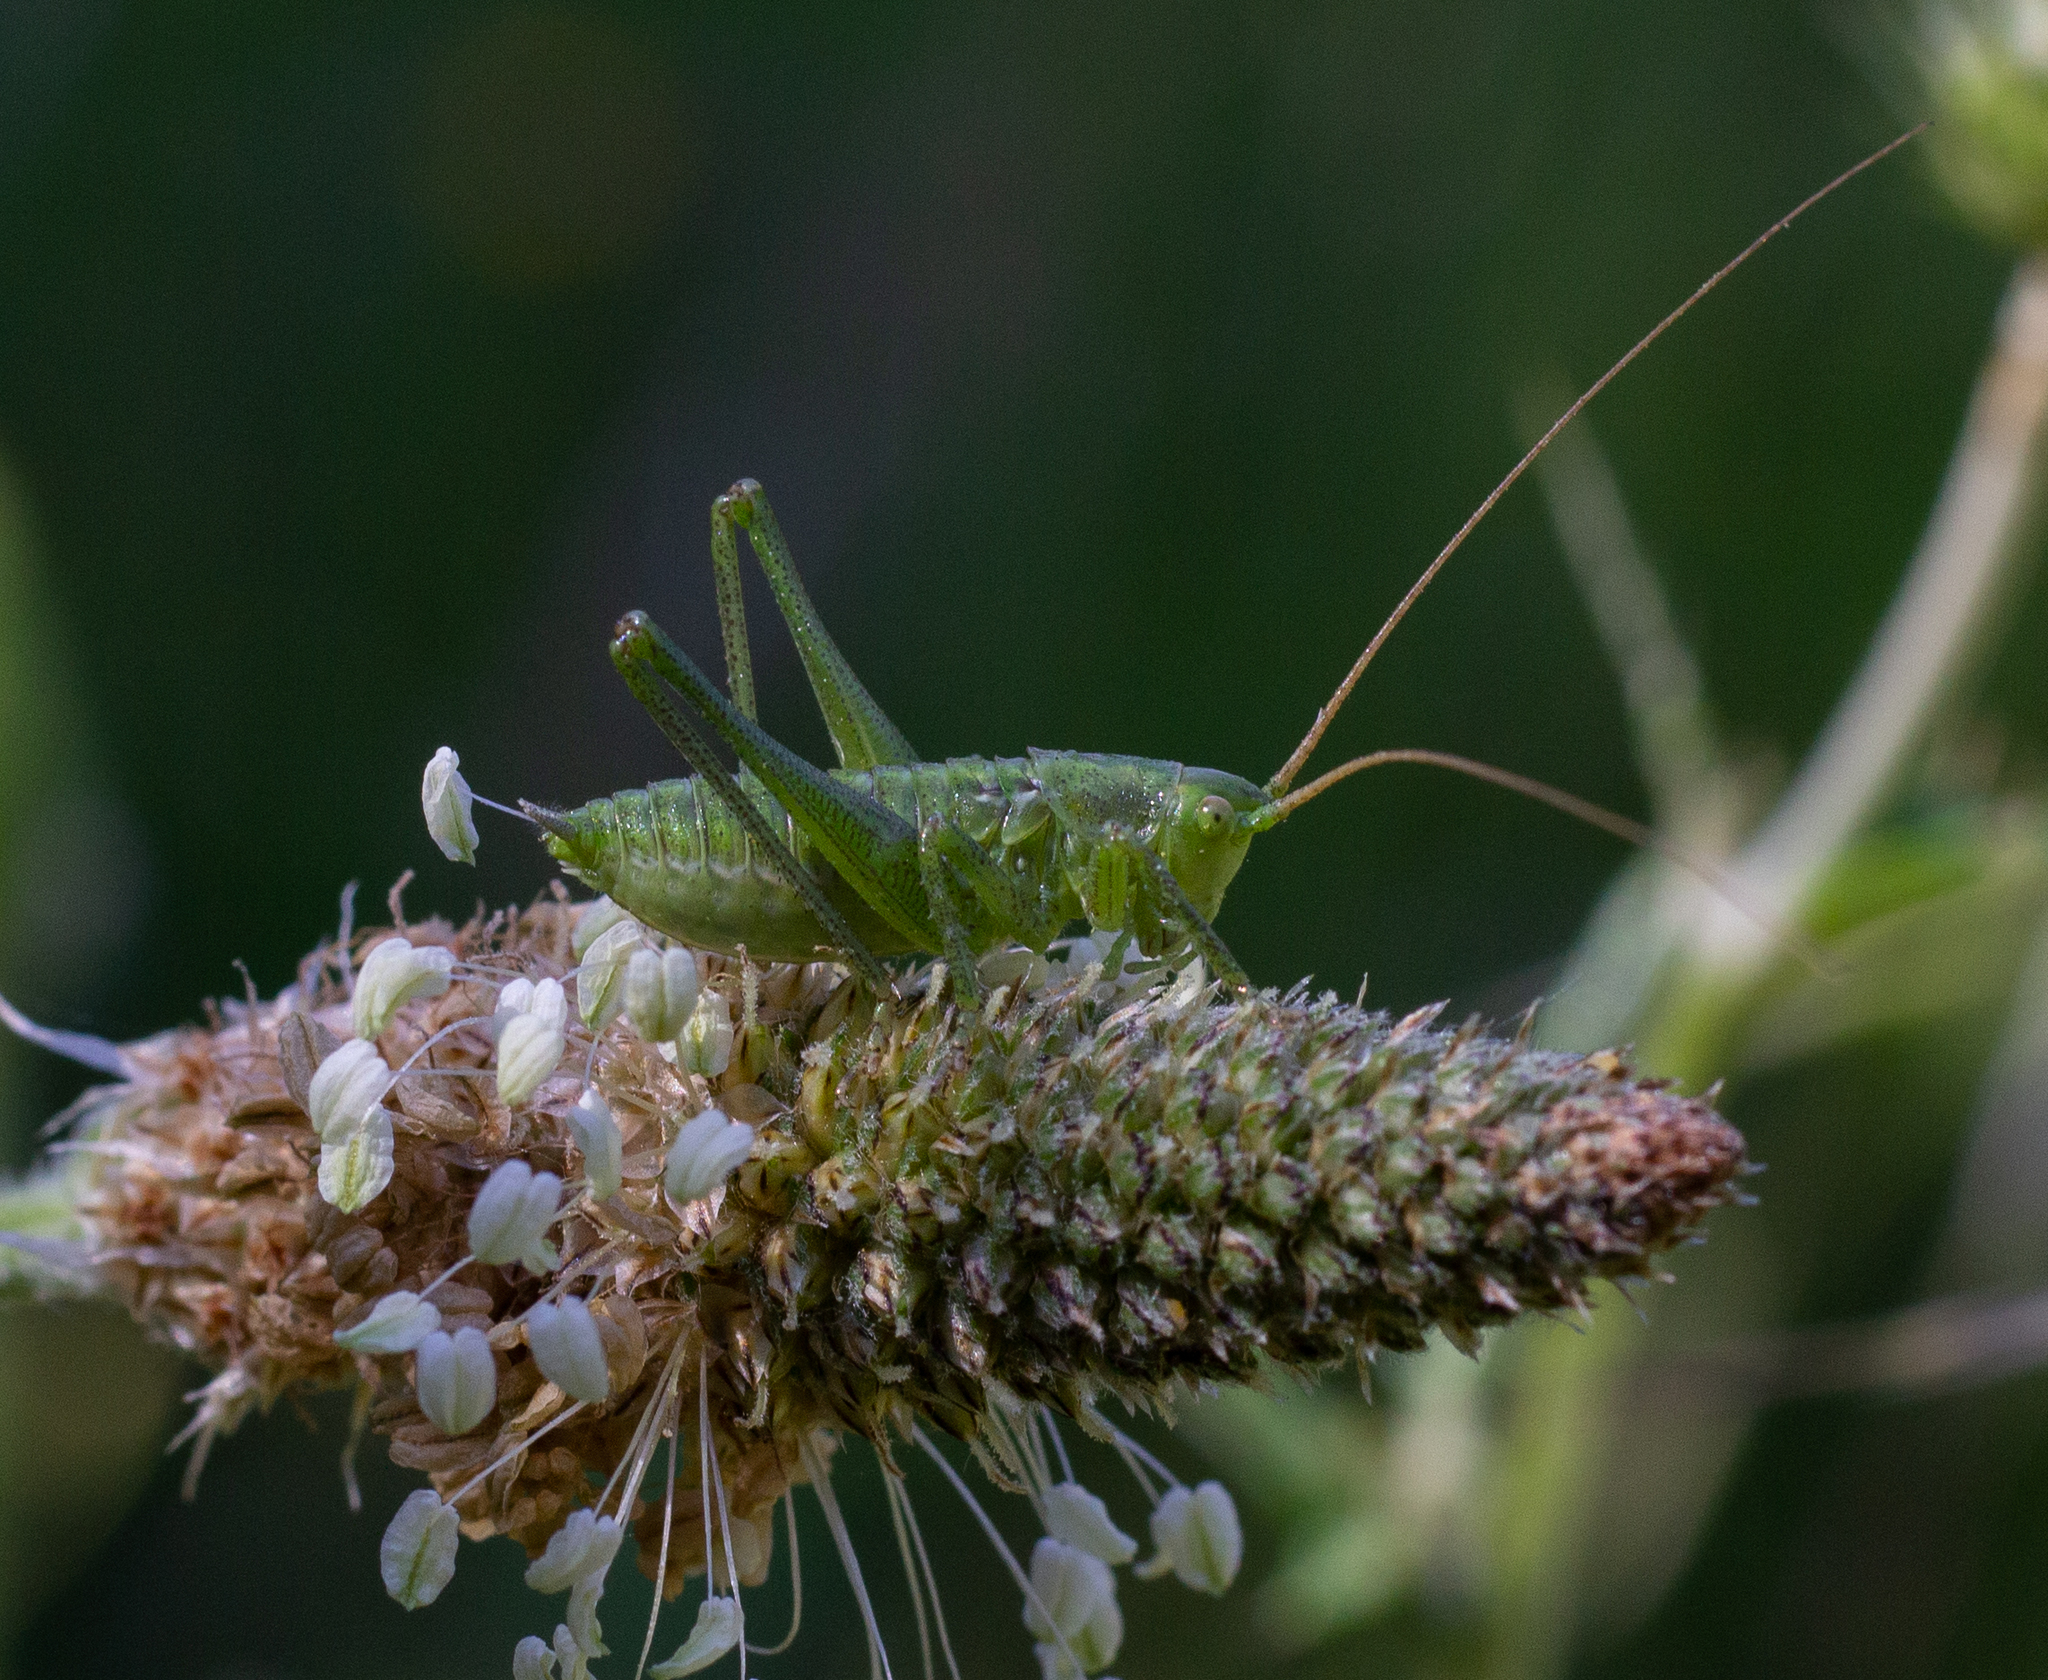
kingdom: Animalia
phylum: Arthropoda
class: Insecta
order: Orthoptera
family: Tettigoniidae
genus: Tettigonia
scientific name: Tettigonia viridissima
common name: Great green bush-cricket
